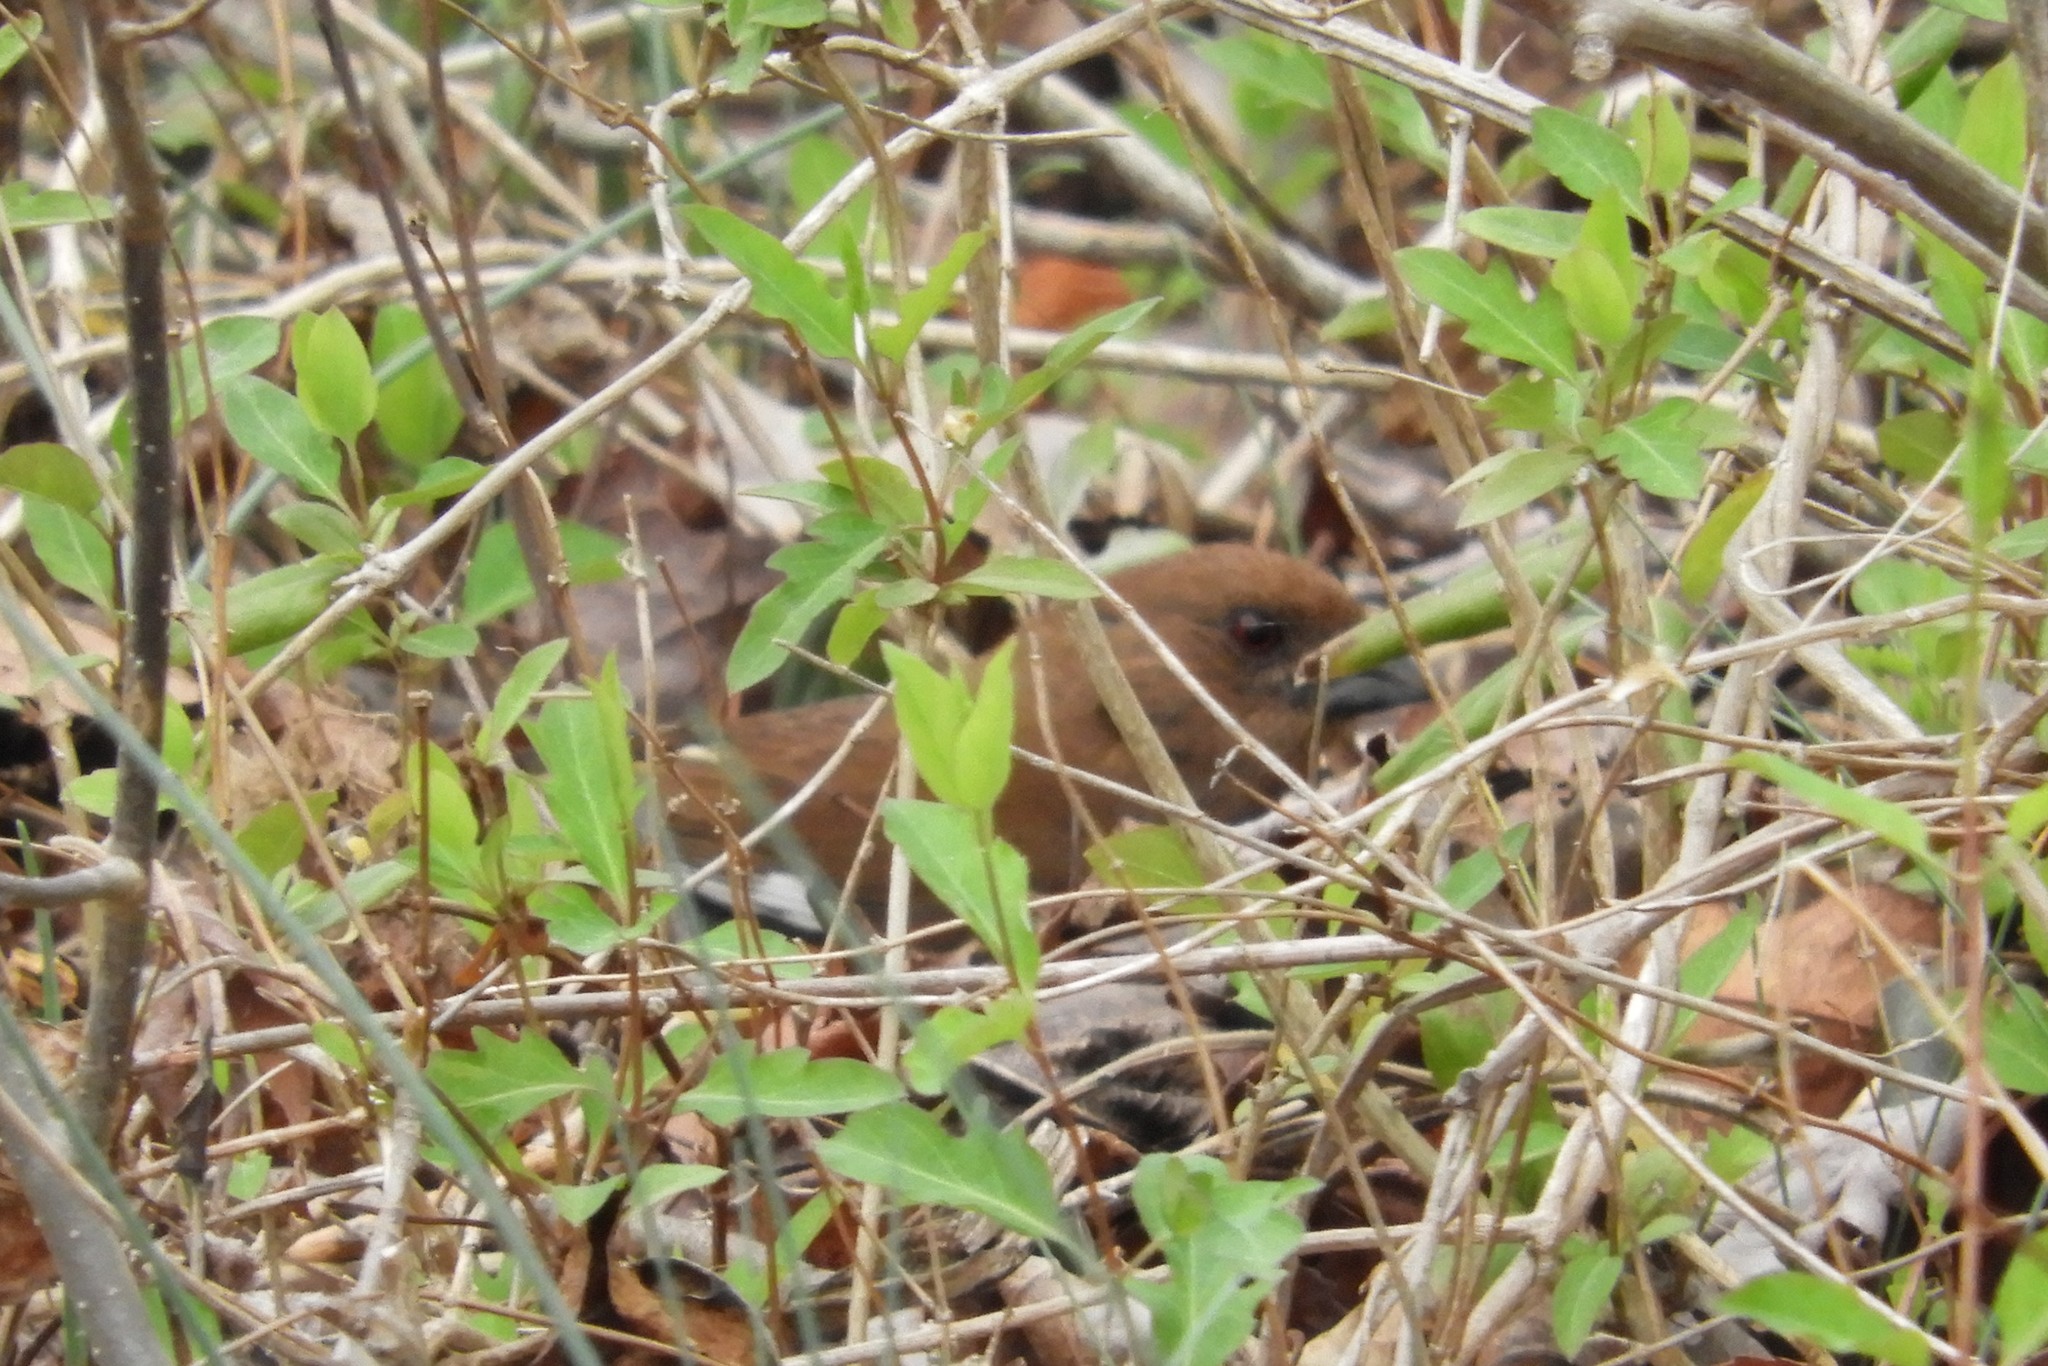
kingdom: Animalia
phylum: Chordata
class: Aves
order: Passeriformes
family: Passerellidae
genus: Pipilo
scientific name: Pipilo erythrophthalmus
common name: Eastern towhee
